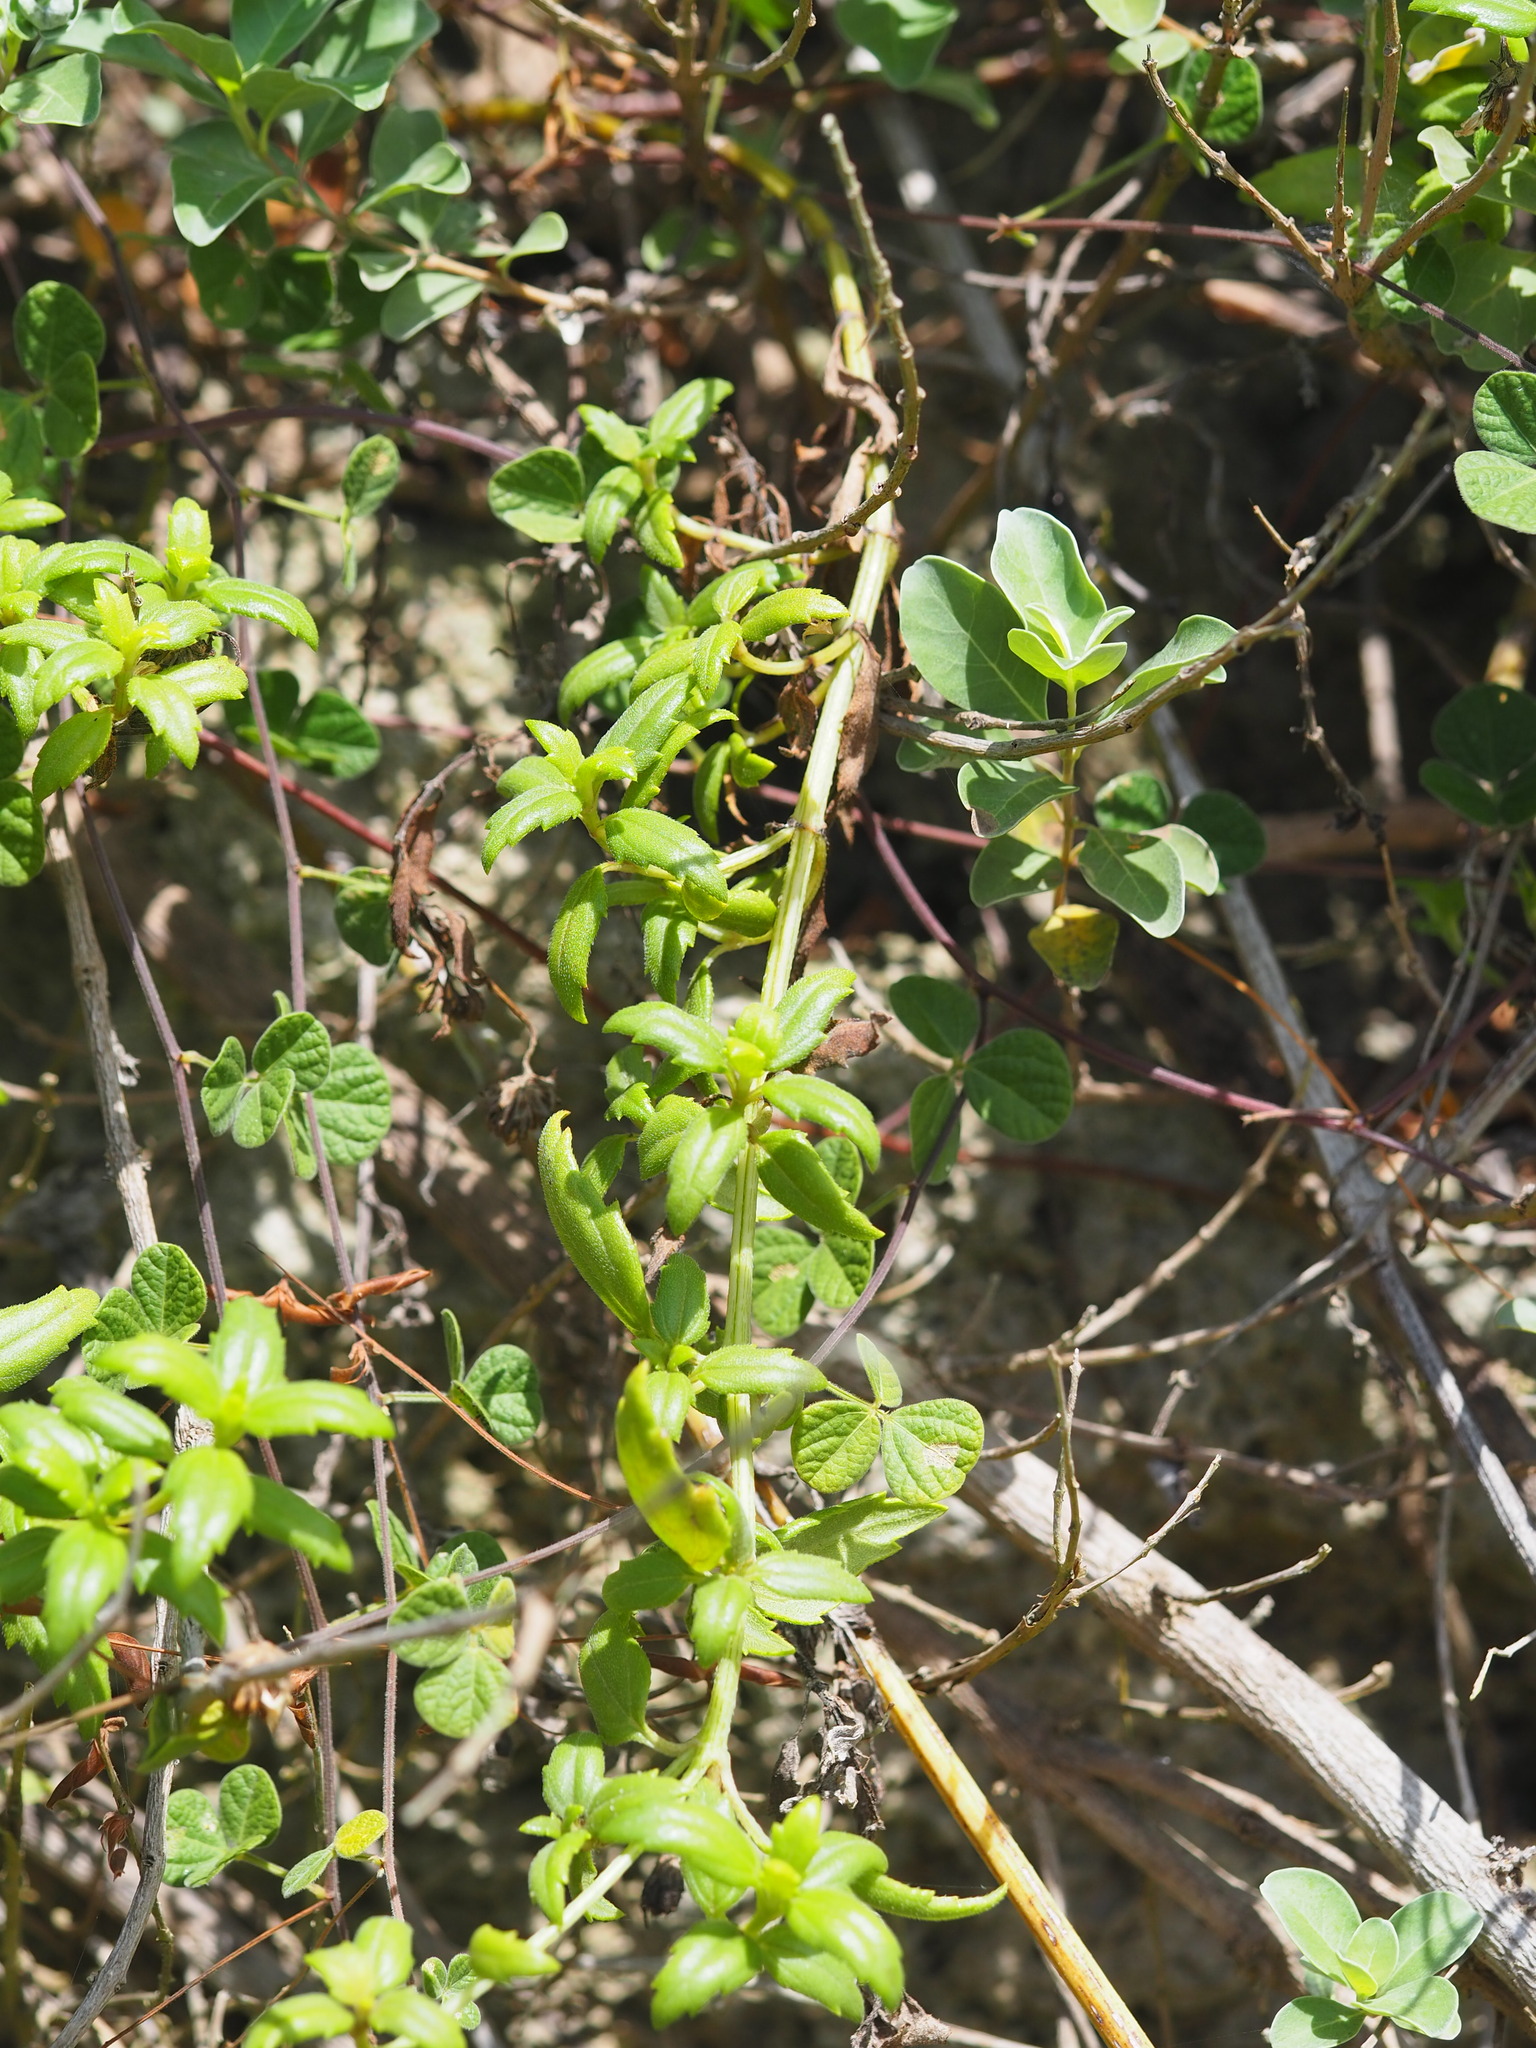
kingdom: Plantae
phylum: Tracheophyta
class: Magnoliopsida
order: Asterales
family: Asteraceae
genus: Melanthera
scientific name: Melanthera prostrata
